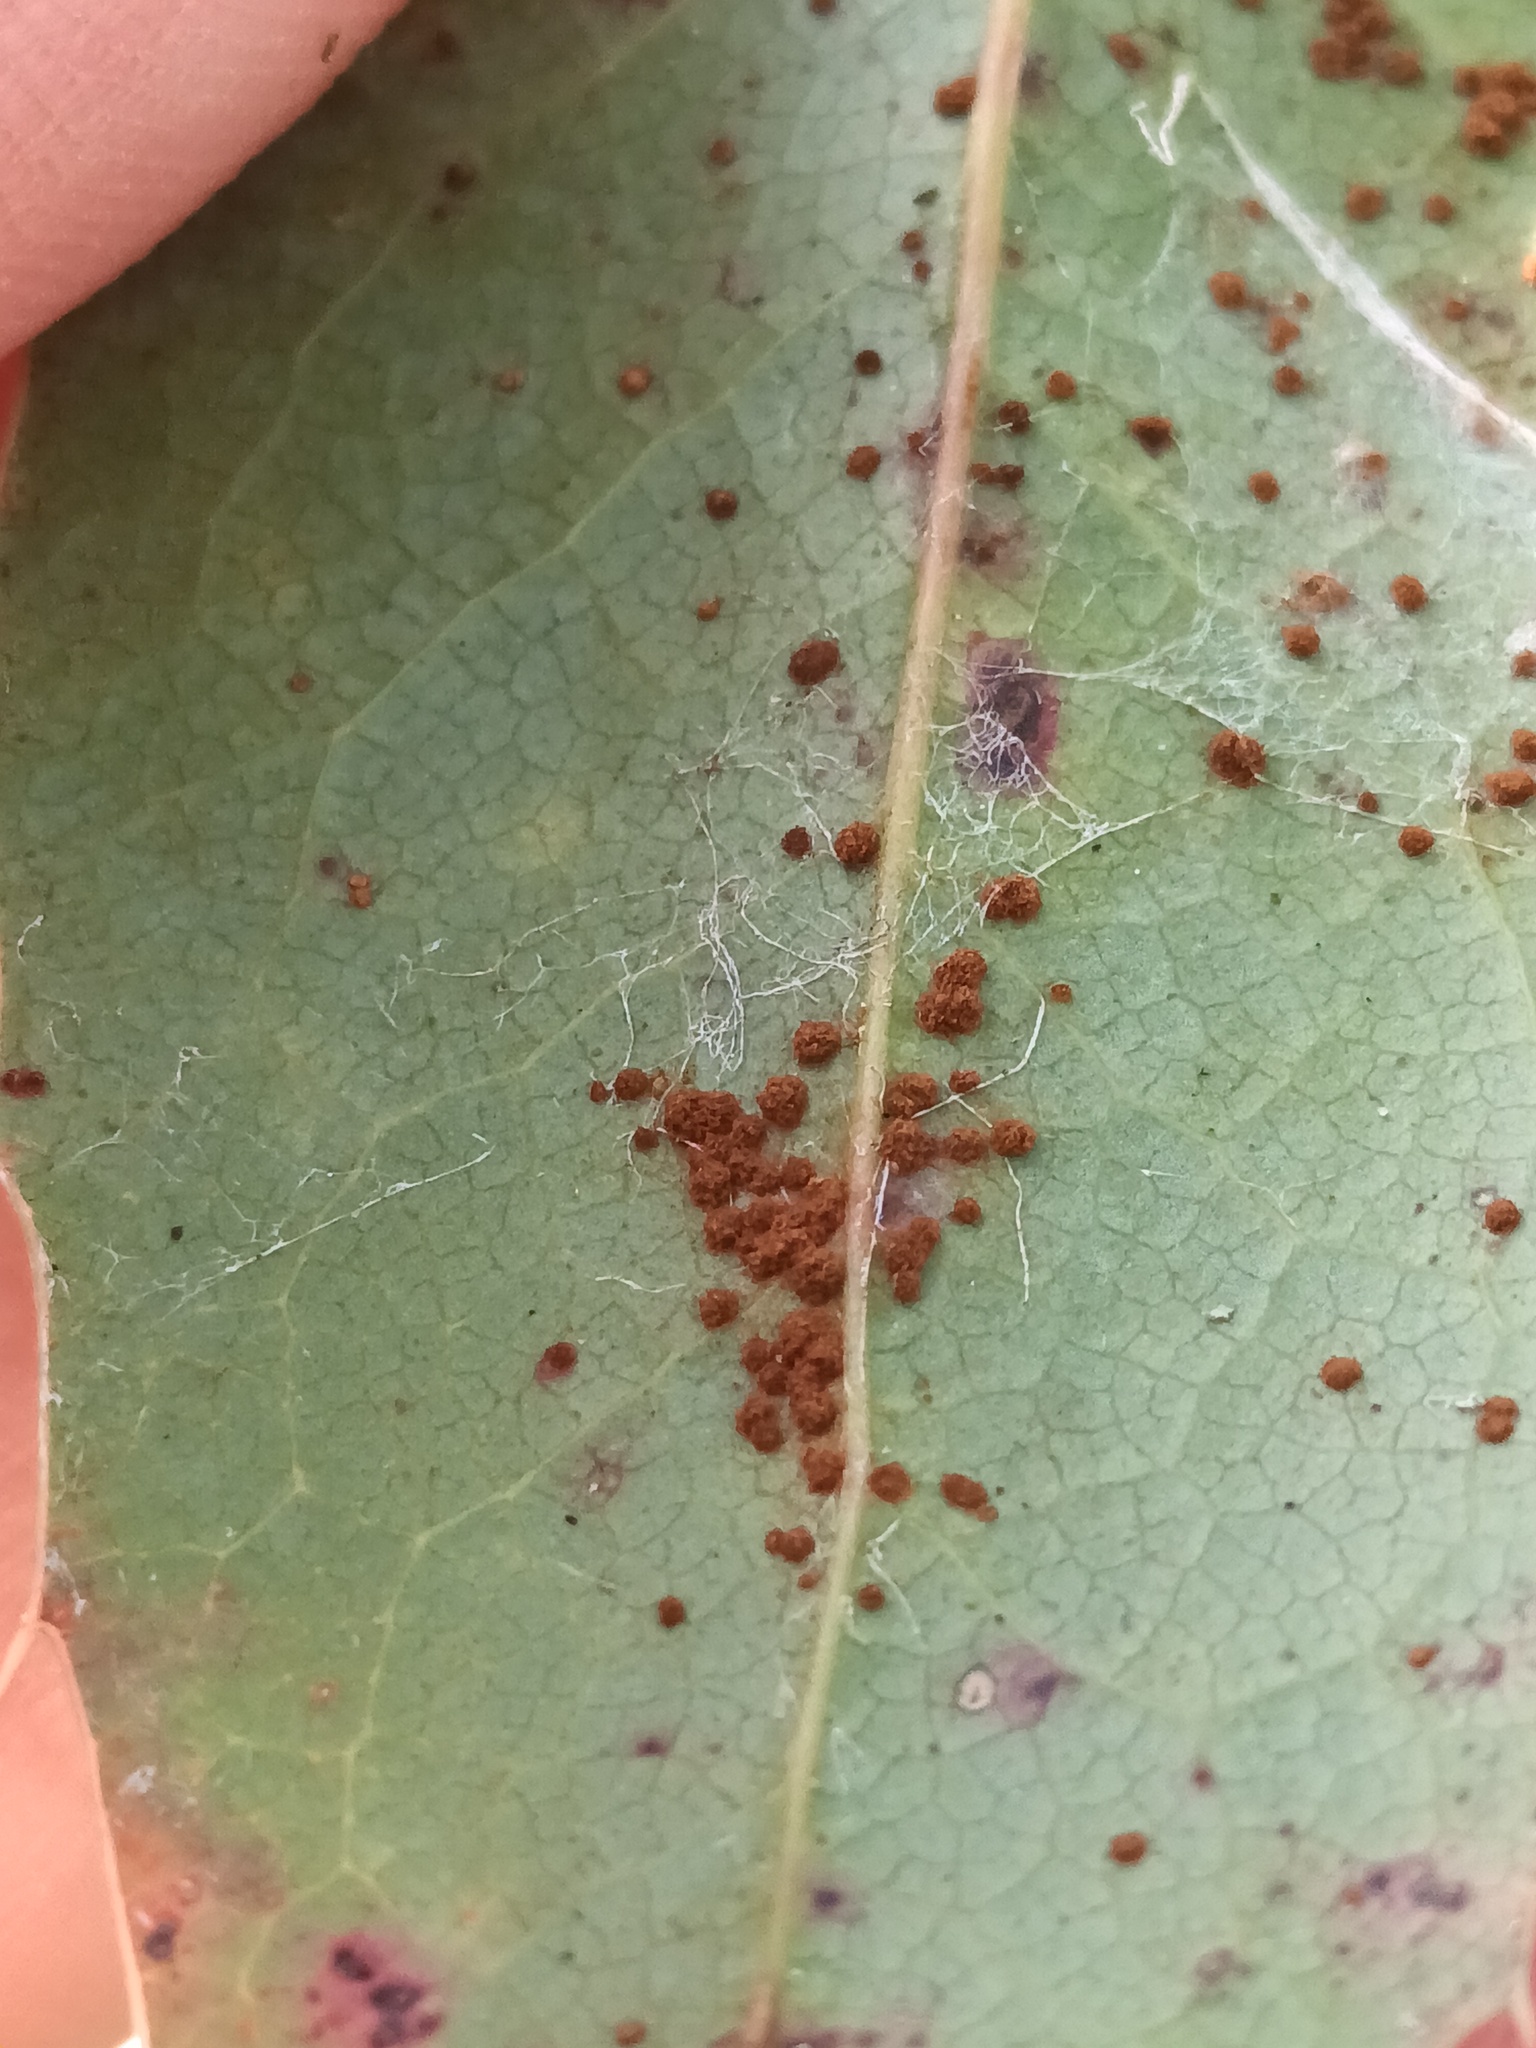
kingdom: Fungi
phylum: Basidiomycota
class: Pucciniomycetes
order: Pucciniales
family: Pucciniaceae
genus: Cumminsiella
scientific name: Cumminsiella mirabilissima
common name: Mahonia rust
